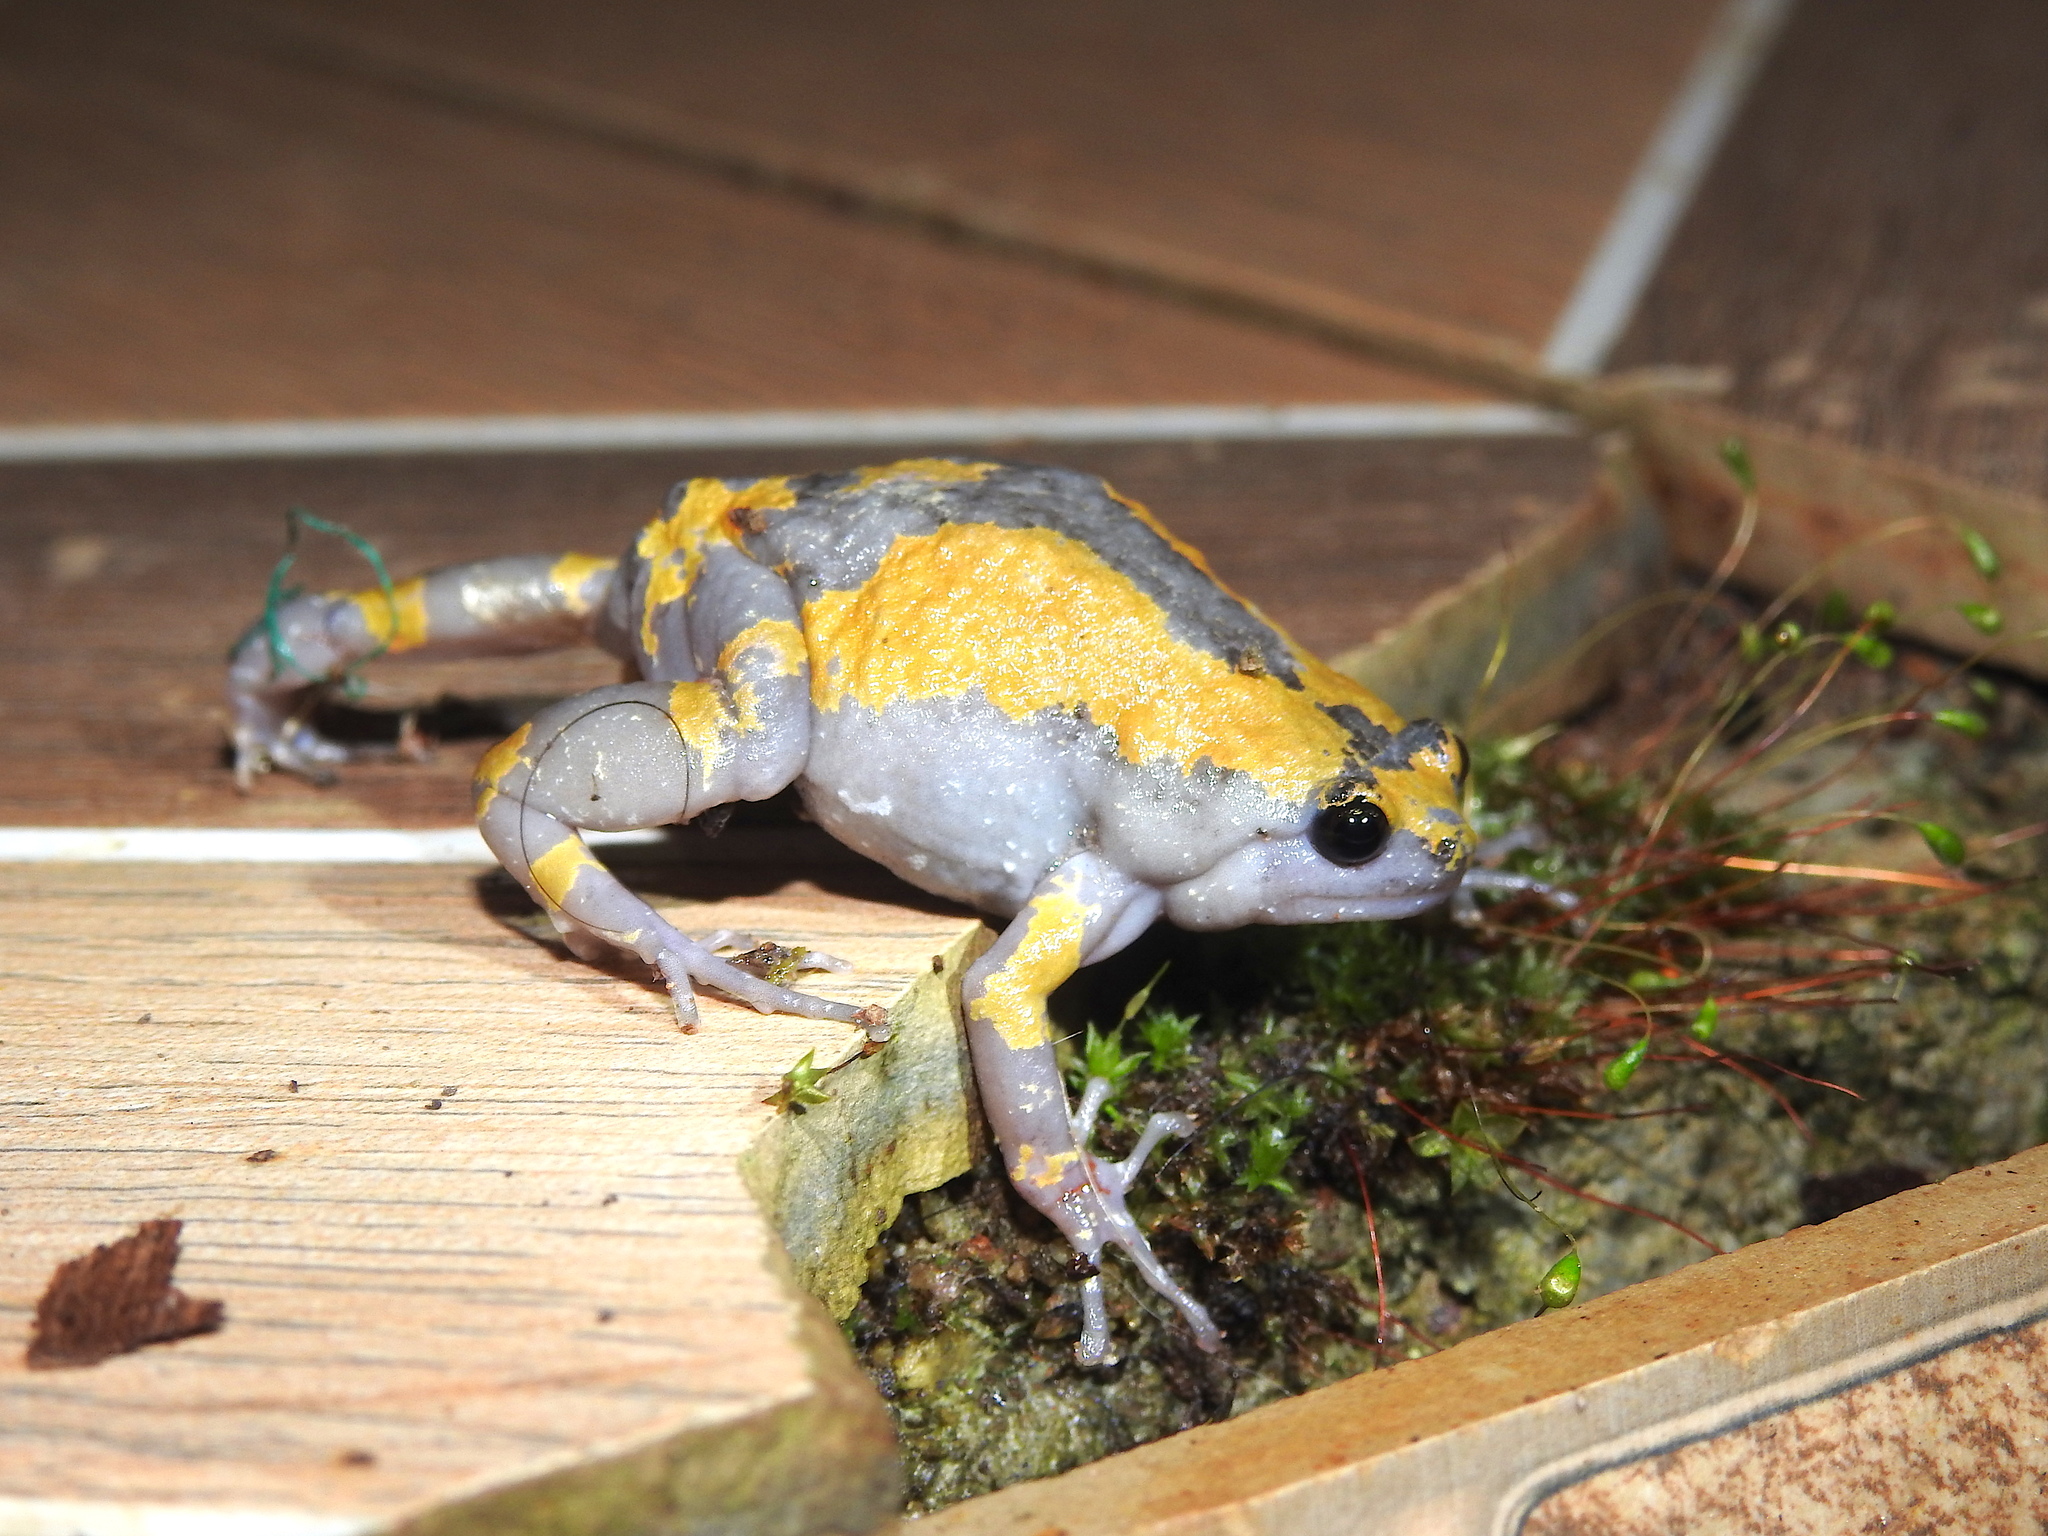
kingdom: Animalia
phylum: Chordata
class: Amphibia
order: Anura
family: Microhylidae
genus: Uperodon
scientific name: Uperodon triangularis
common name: Malabar dot frog
